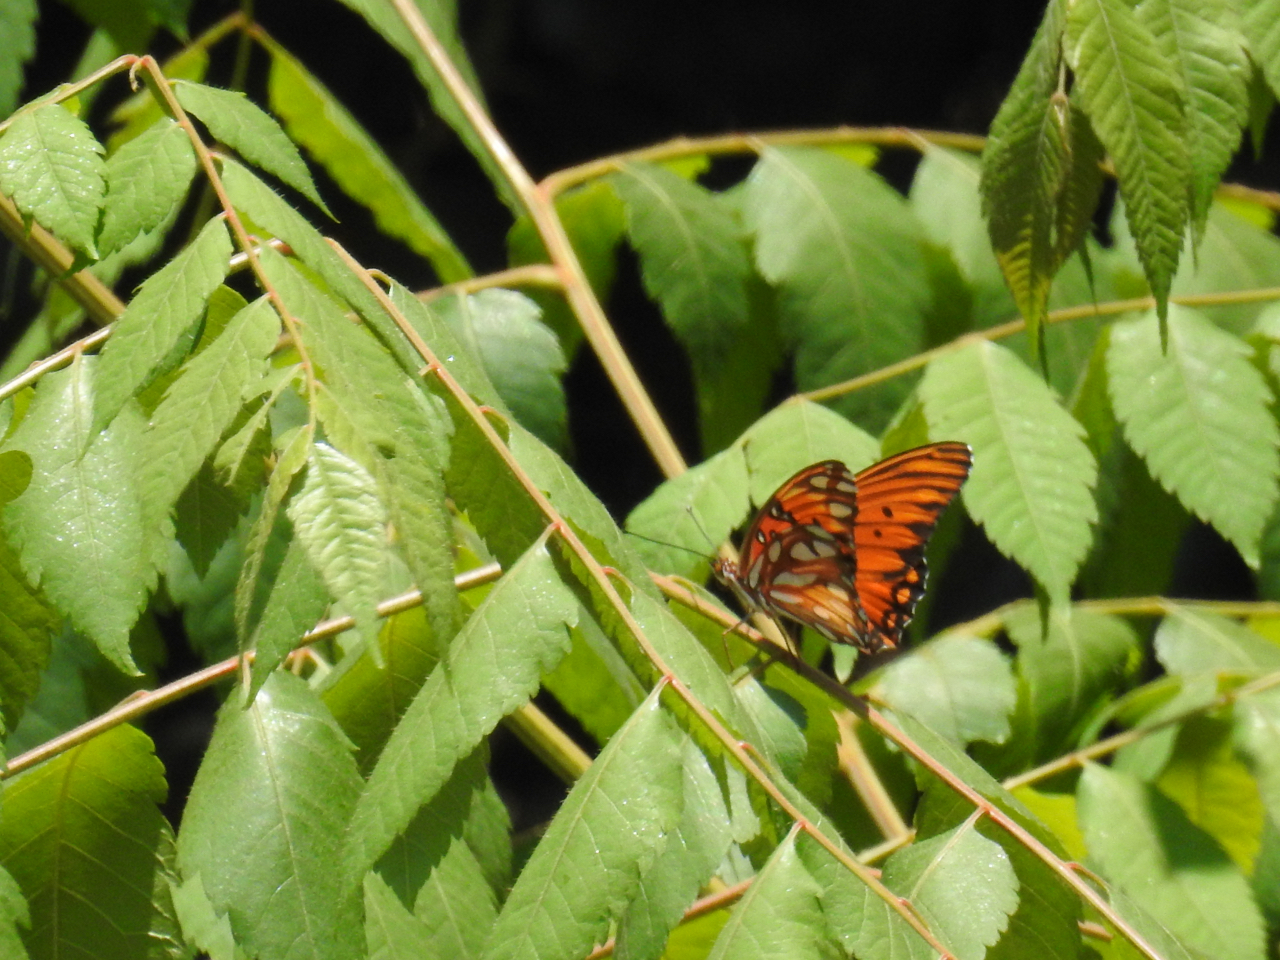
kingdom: Animalia
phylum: Arthropoda
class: Insecta
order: Lepidoptera
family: Nymphalidae
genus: Dione
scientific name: Dione vanillae
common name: Gulf fritillary
